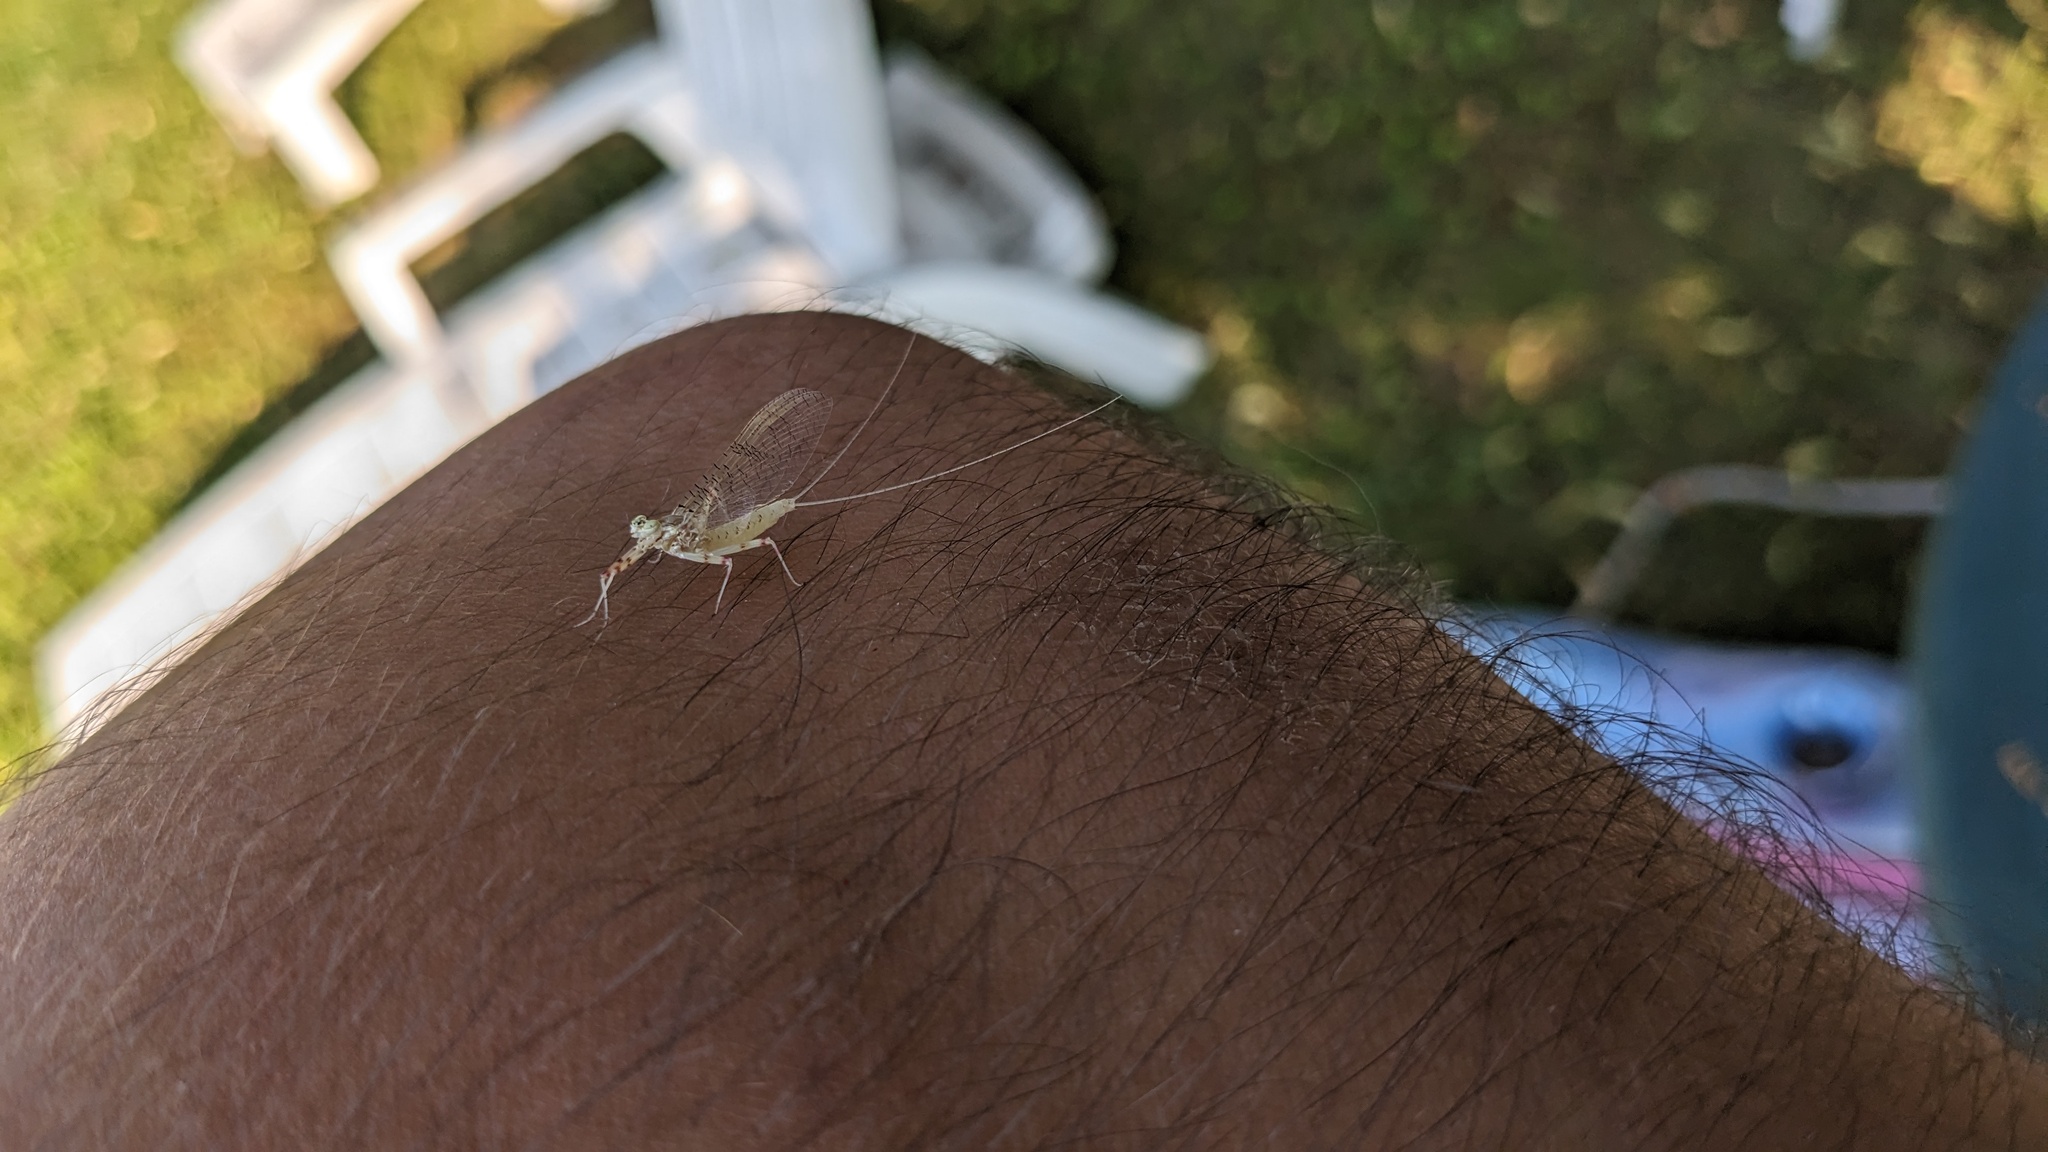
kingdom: Animalia
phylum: Arthropoda
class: Insecta
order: Ephemeroptera
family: Heptageniidae
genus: Stenonema
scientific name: Stenonema femoratum
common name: Dark cahill
